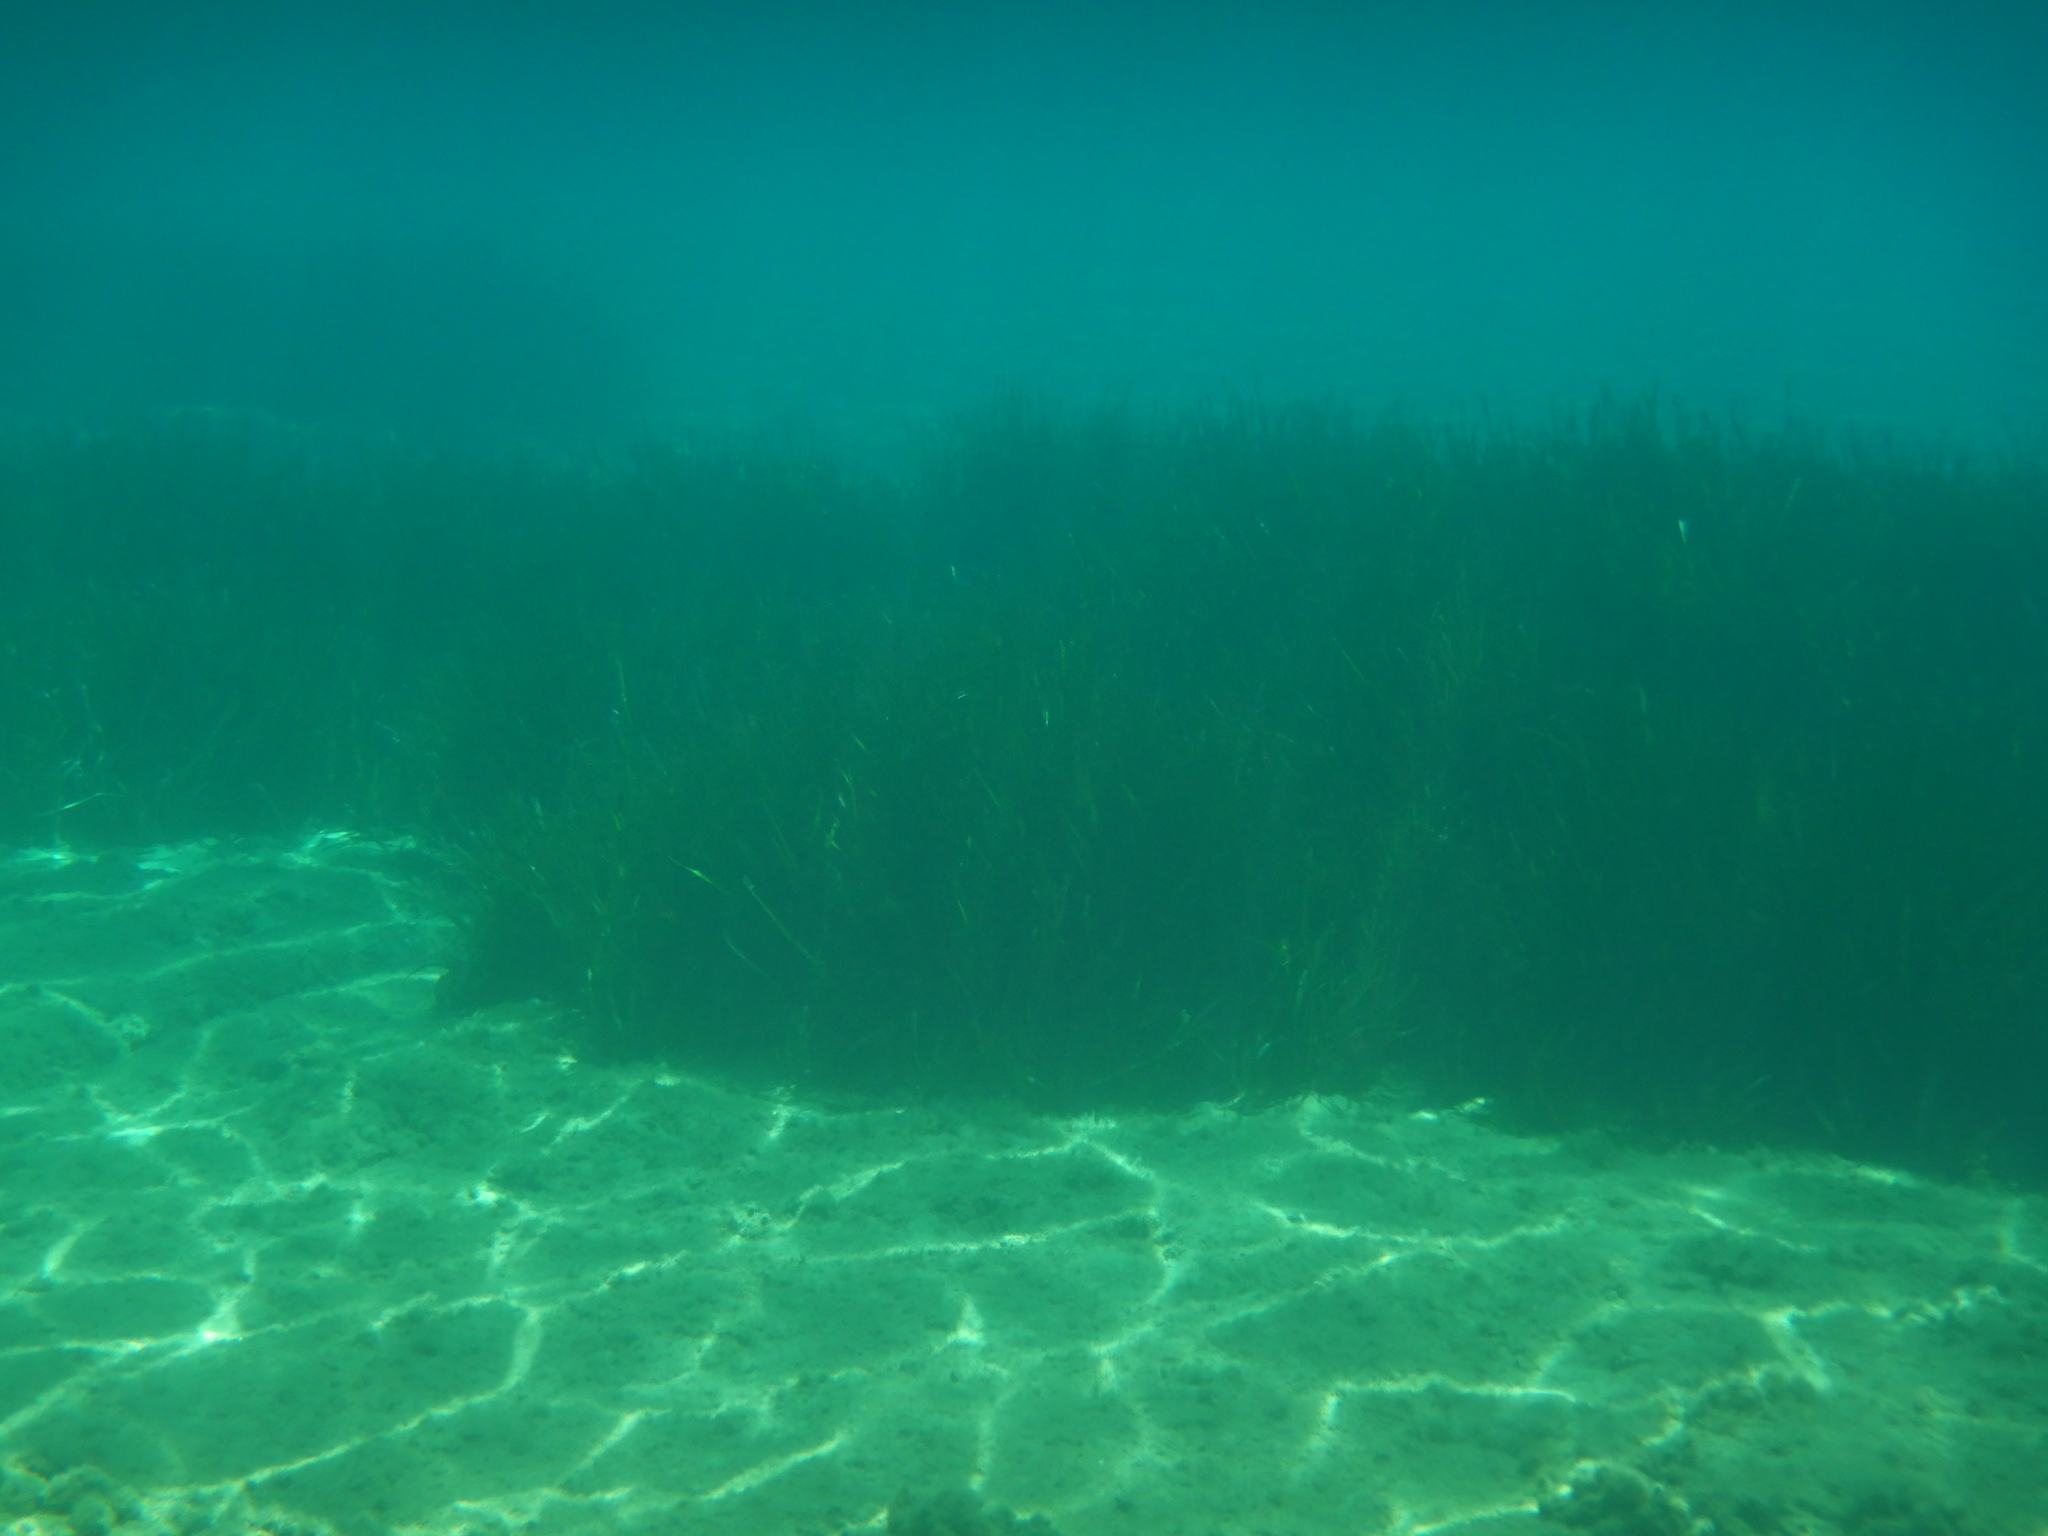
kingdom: Plantae
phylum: Tracheophyta
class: Liliopsida
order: Alismatales
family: Posidoniaceae
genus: Posidonia
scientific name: Posidonia oceanica
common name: Mediterranean tapeweed
